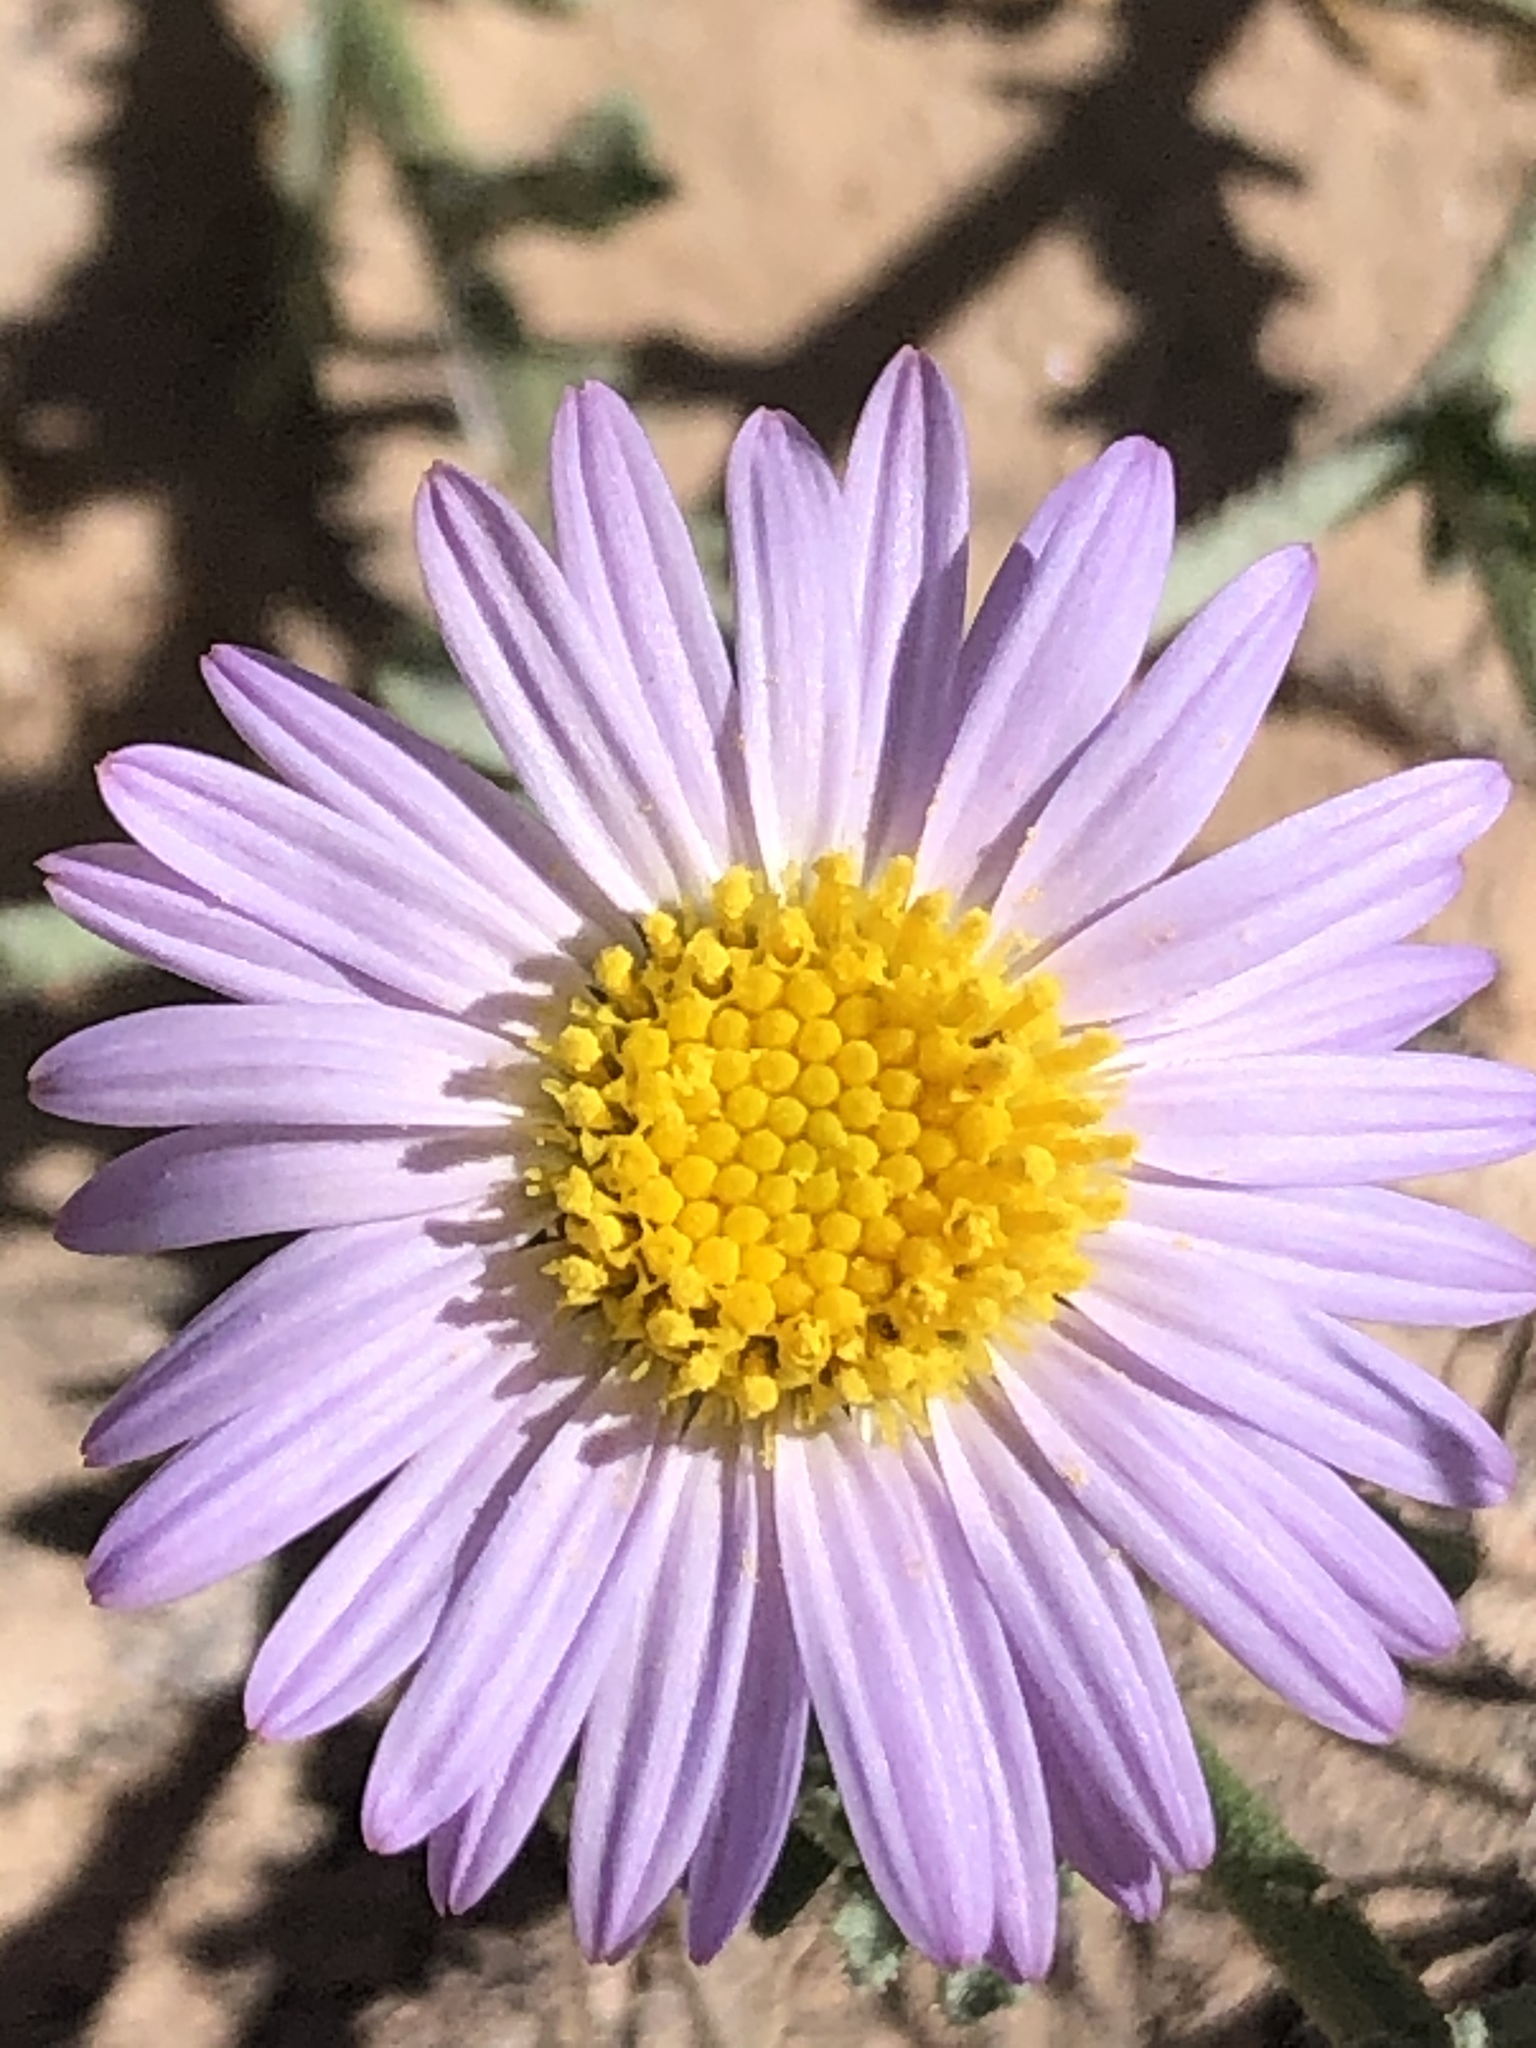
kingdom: Plantae
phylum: Tracheophyta
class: Magnoliopsida
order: Asterales
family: Asteraceae
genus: Leucosyris
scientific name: Leucosyris coulteri
